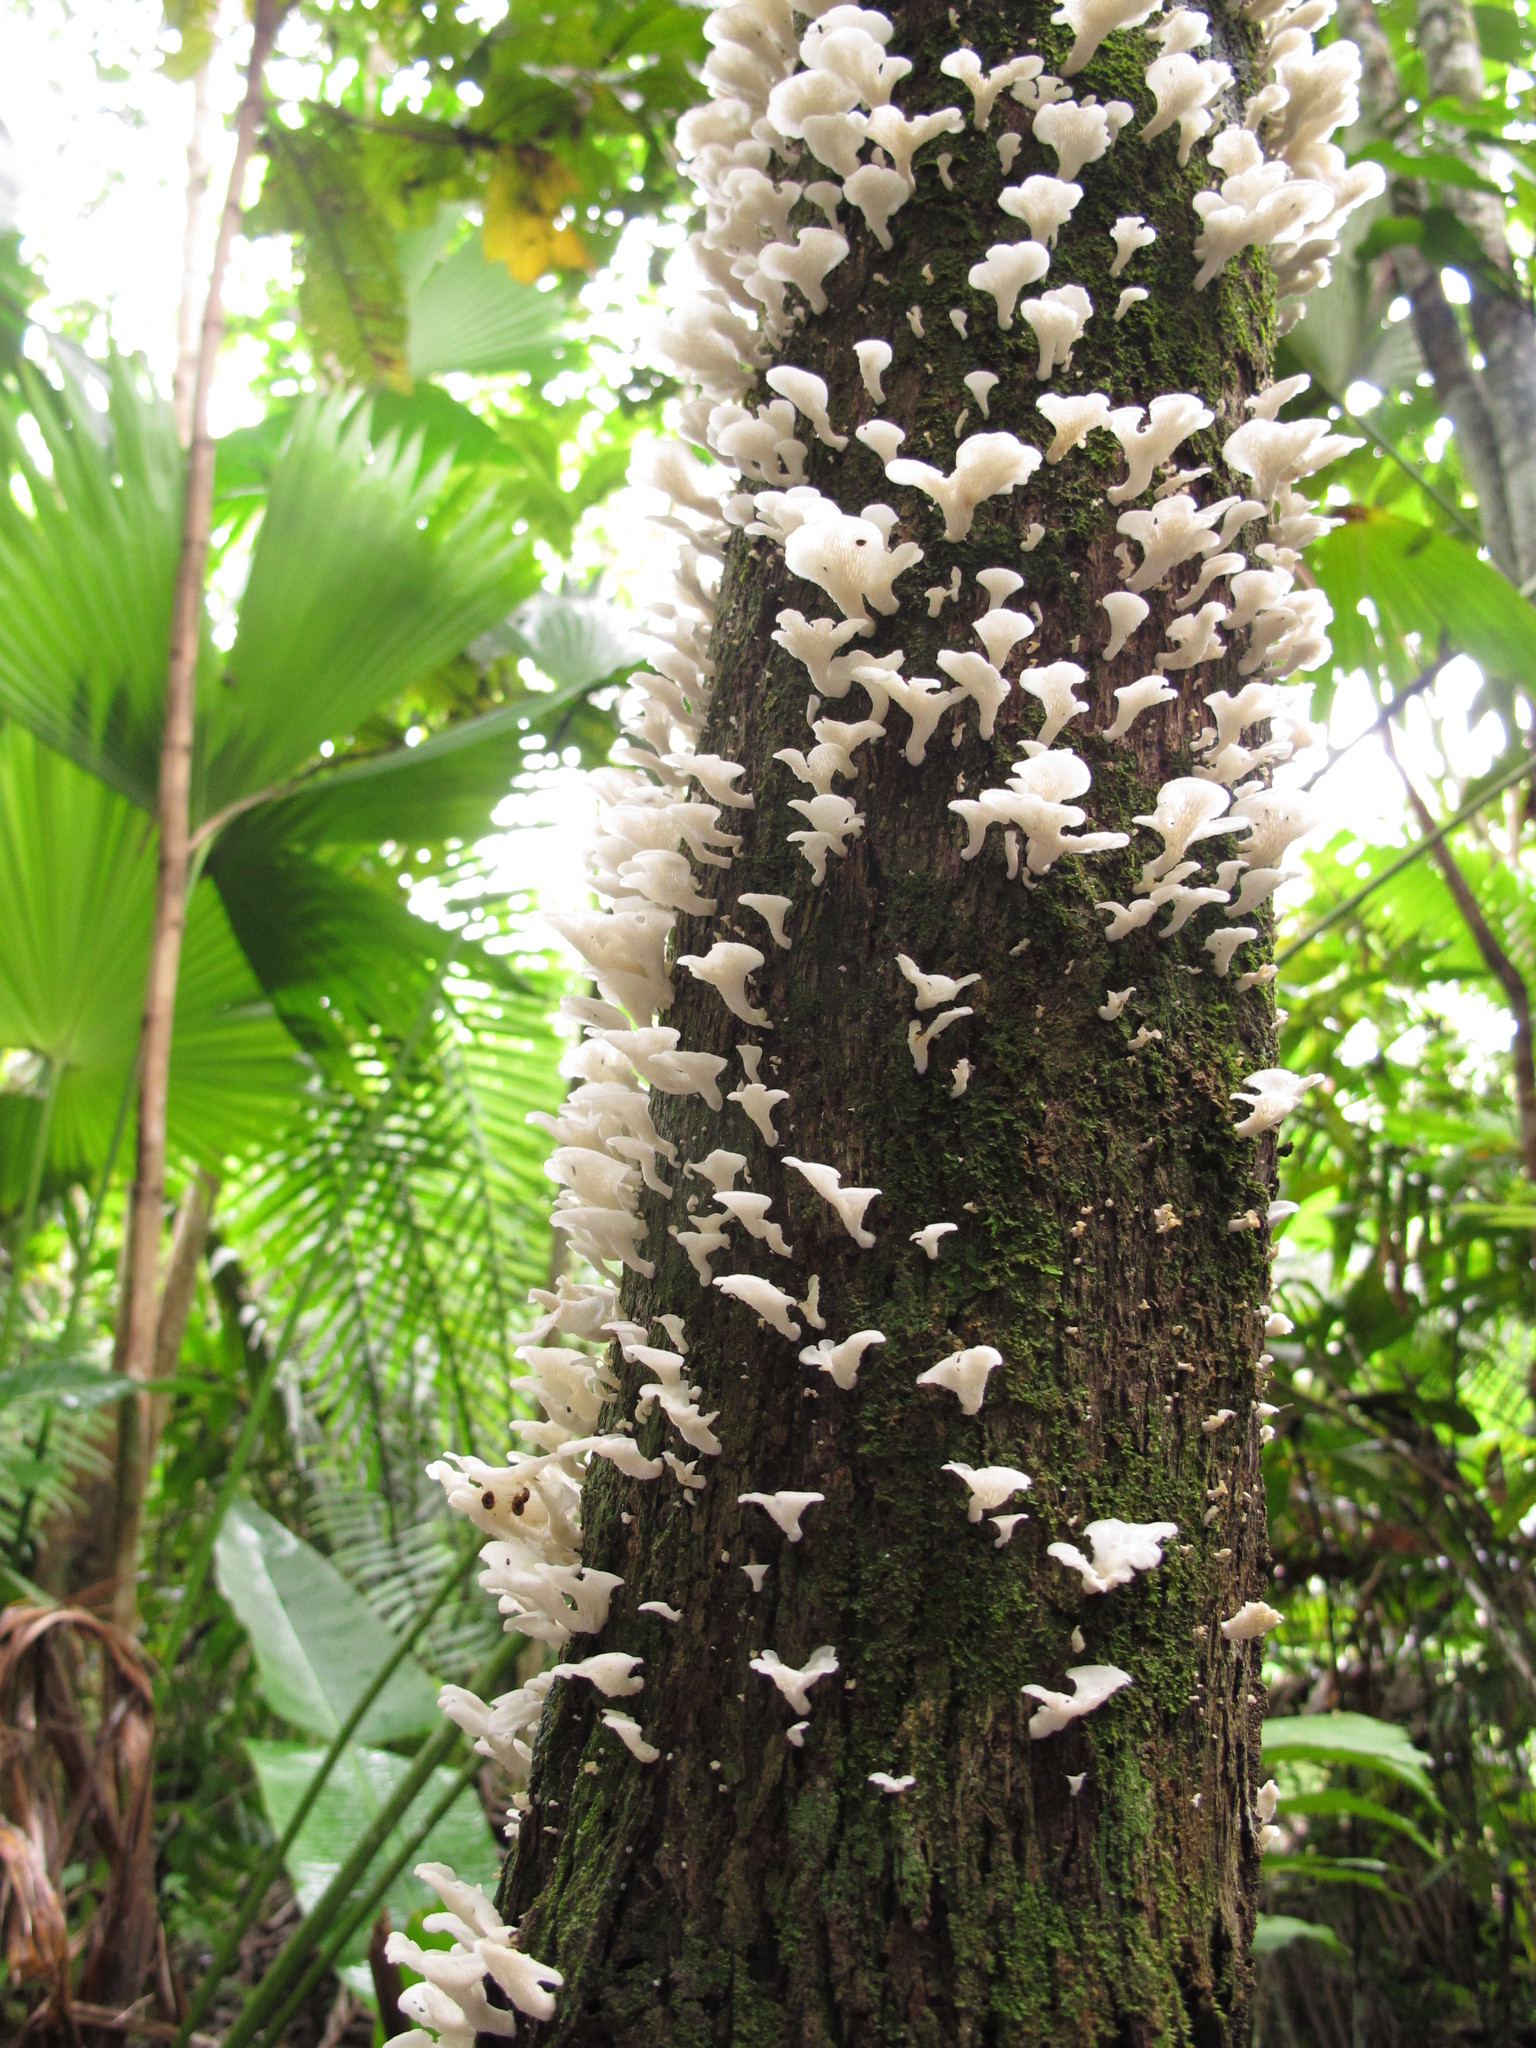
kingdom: Fungi
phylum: Basidiomycota
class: Agaricomycetes
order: Polyporales
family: Polyporaceae
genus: Favolus
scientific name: Favolus tenuiculus
